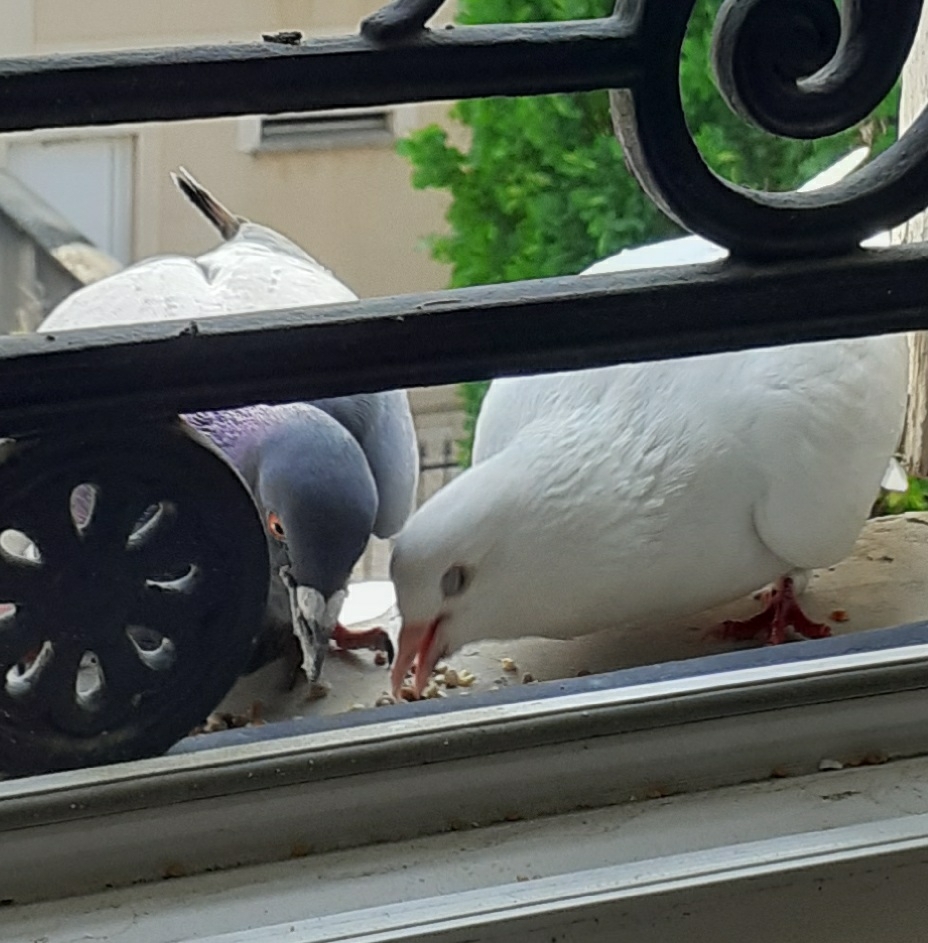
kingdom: Animalia
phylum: Chordata
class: Aves
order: Columbiformes
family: Columbidae
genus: Columba
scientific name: Columba livia
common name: Rock pigeon
